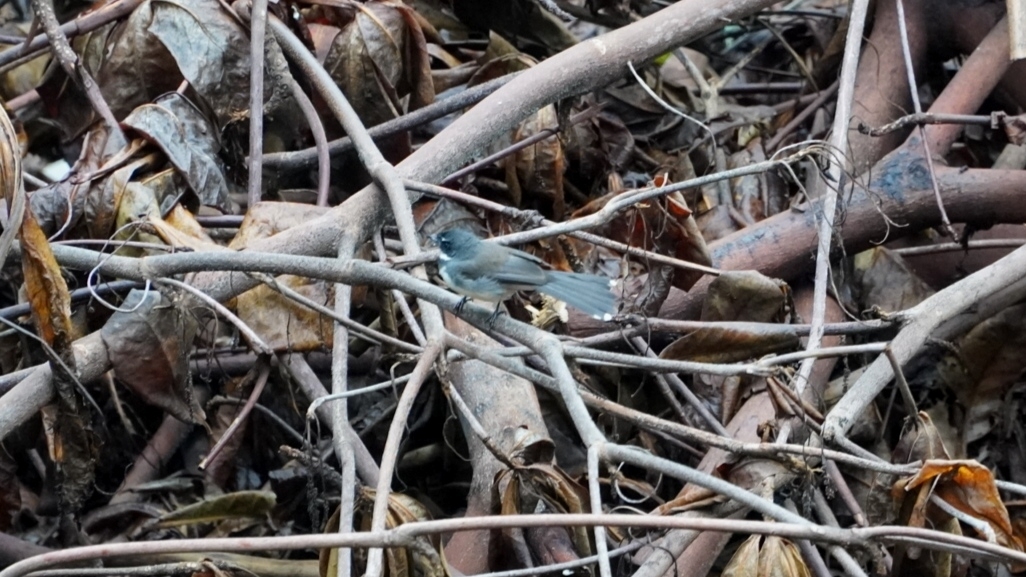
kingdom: Animalia
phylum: Chordata
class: Aves
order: Passeriformes
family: Rhipiduridae
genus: Rhipidura
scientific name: Rhipidura javanica
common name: Pied fantail
